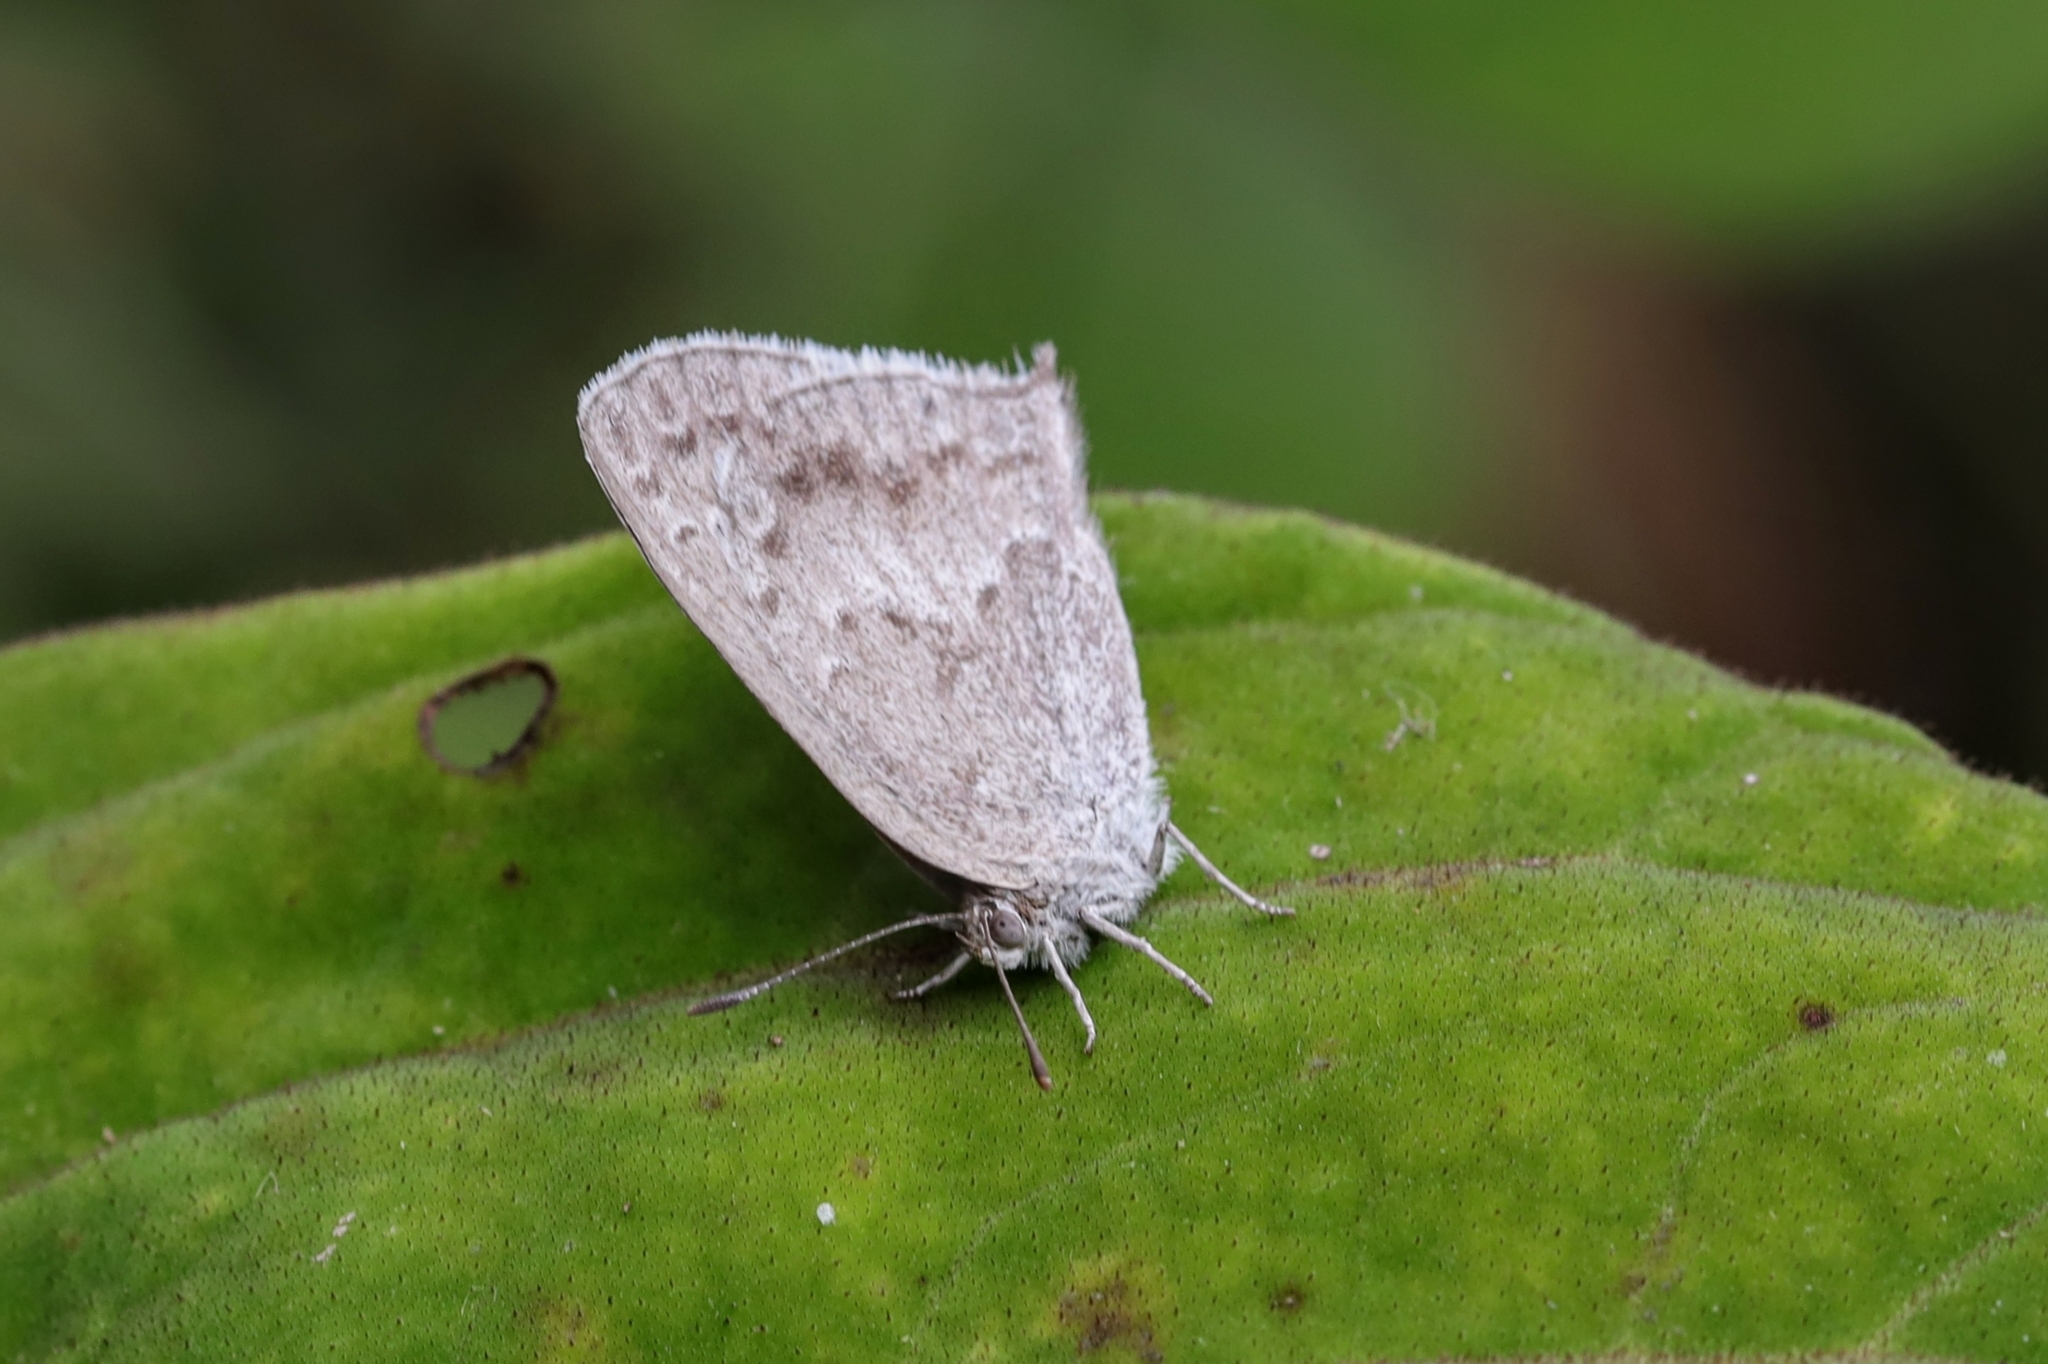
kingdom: Animalia
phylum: Arthropoda
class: Insecta
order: Lepidoptera
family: Lycaenidae
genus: Leptomyrina
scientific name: Leptomyrina gorgias
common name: Common black-eye
